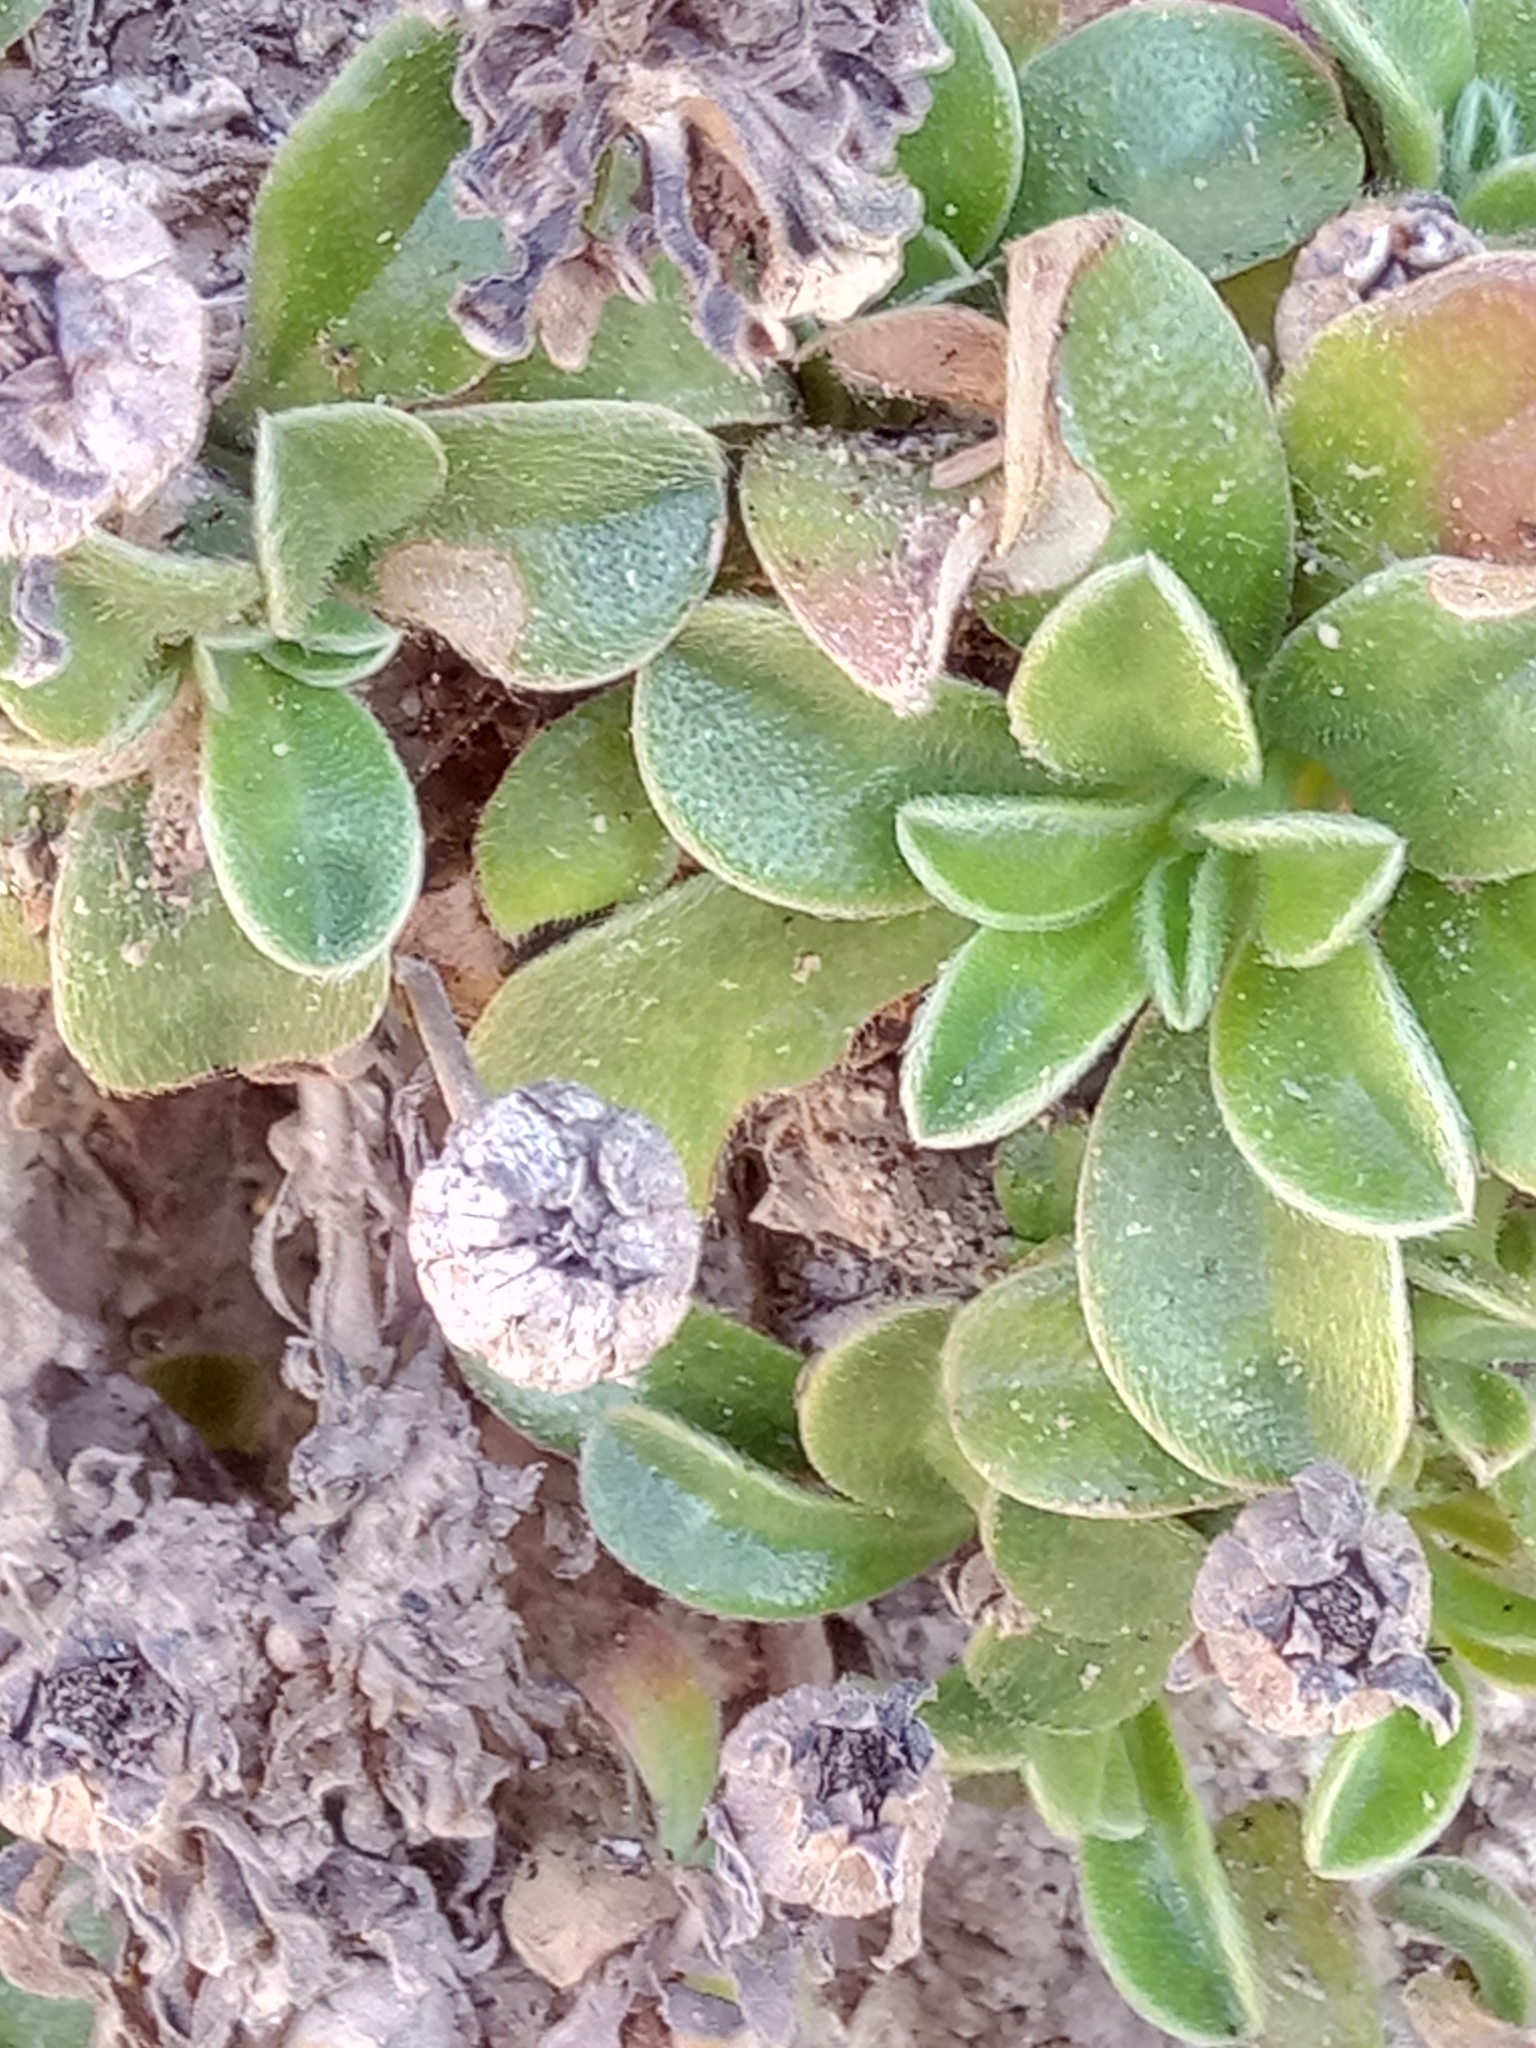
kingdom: Plantae
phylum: Tracheophyta
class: Magnoliopsida
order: Asterales
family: Asteraceae
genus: Pallenis
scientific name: Pallenis maritima
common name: Golden coin daisy
